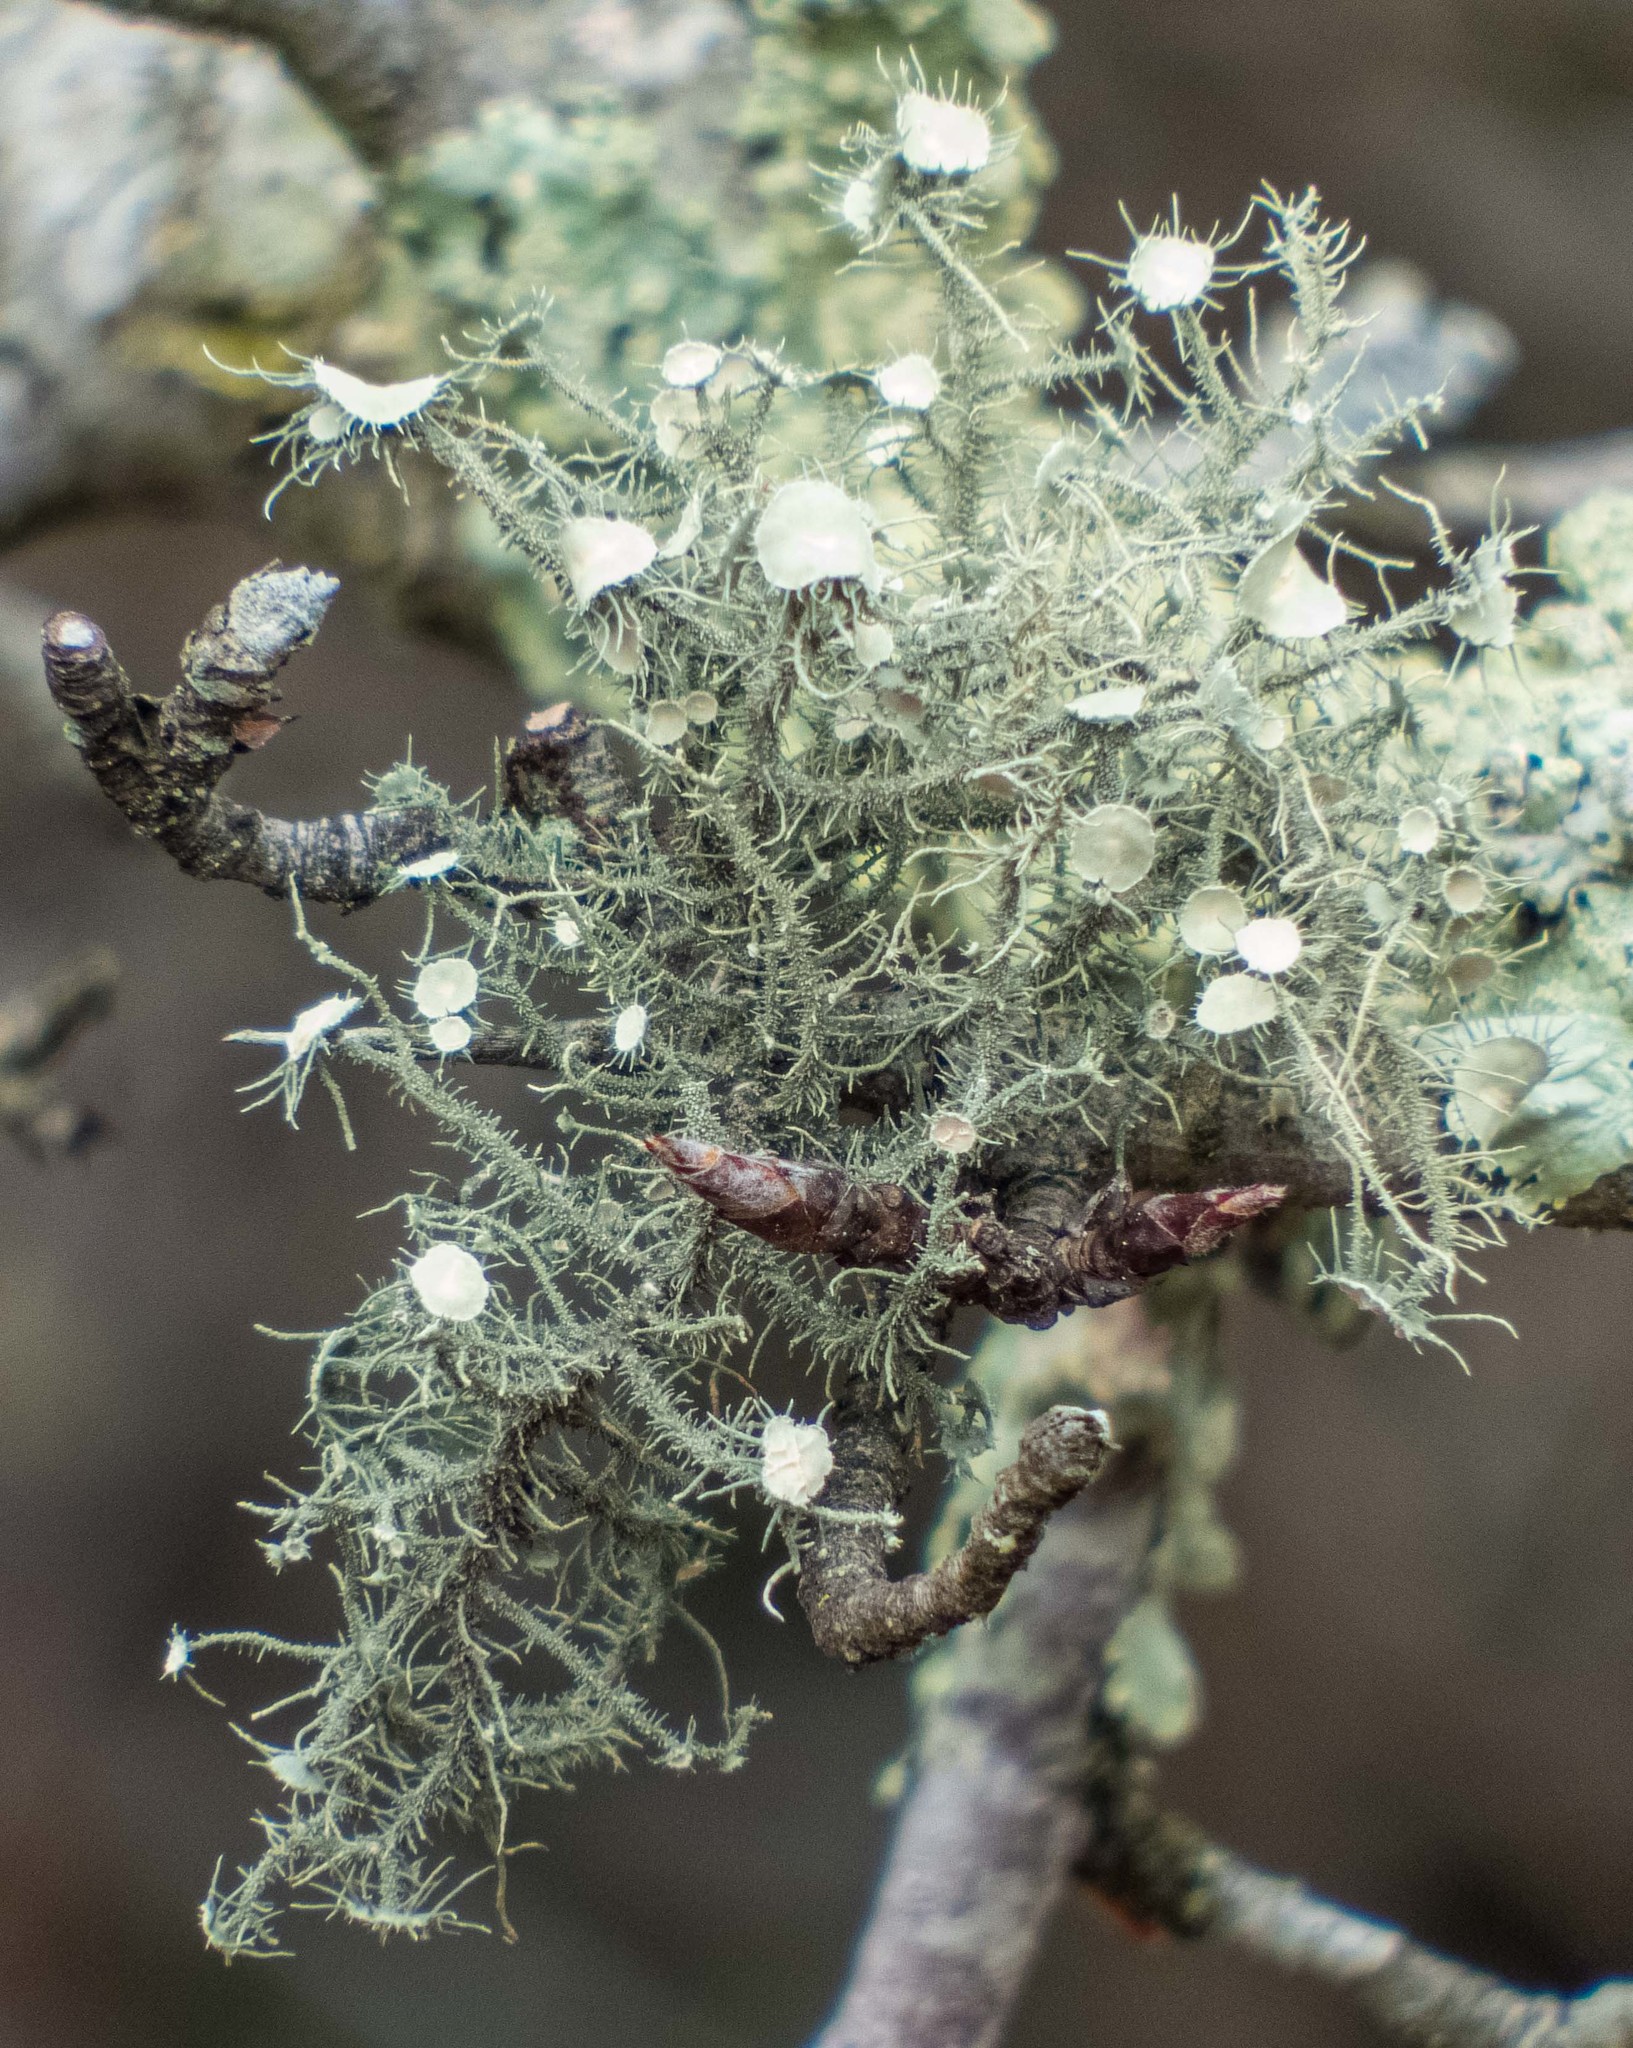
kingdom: Fungi
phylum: Ascomycota
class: Lecanoromycetes
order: Lecanorales
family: Parmeliaceae
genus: Usnea
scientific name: Usnea strigosa
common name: Bushy beard lichen
